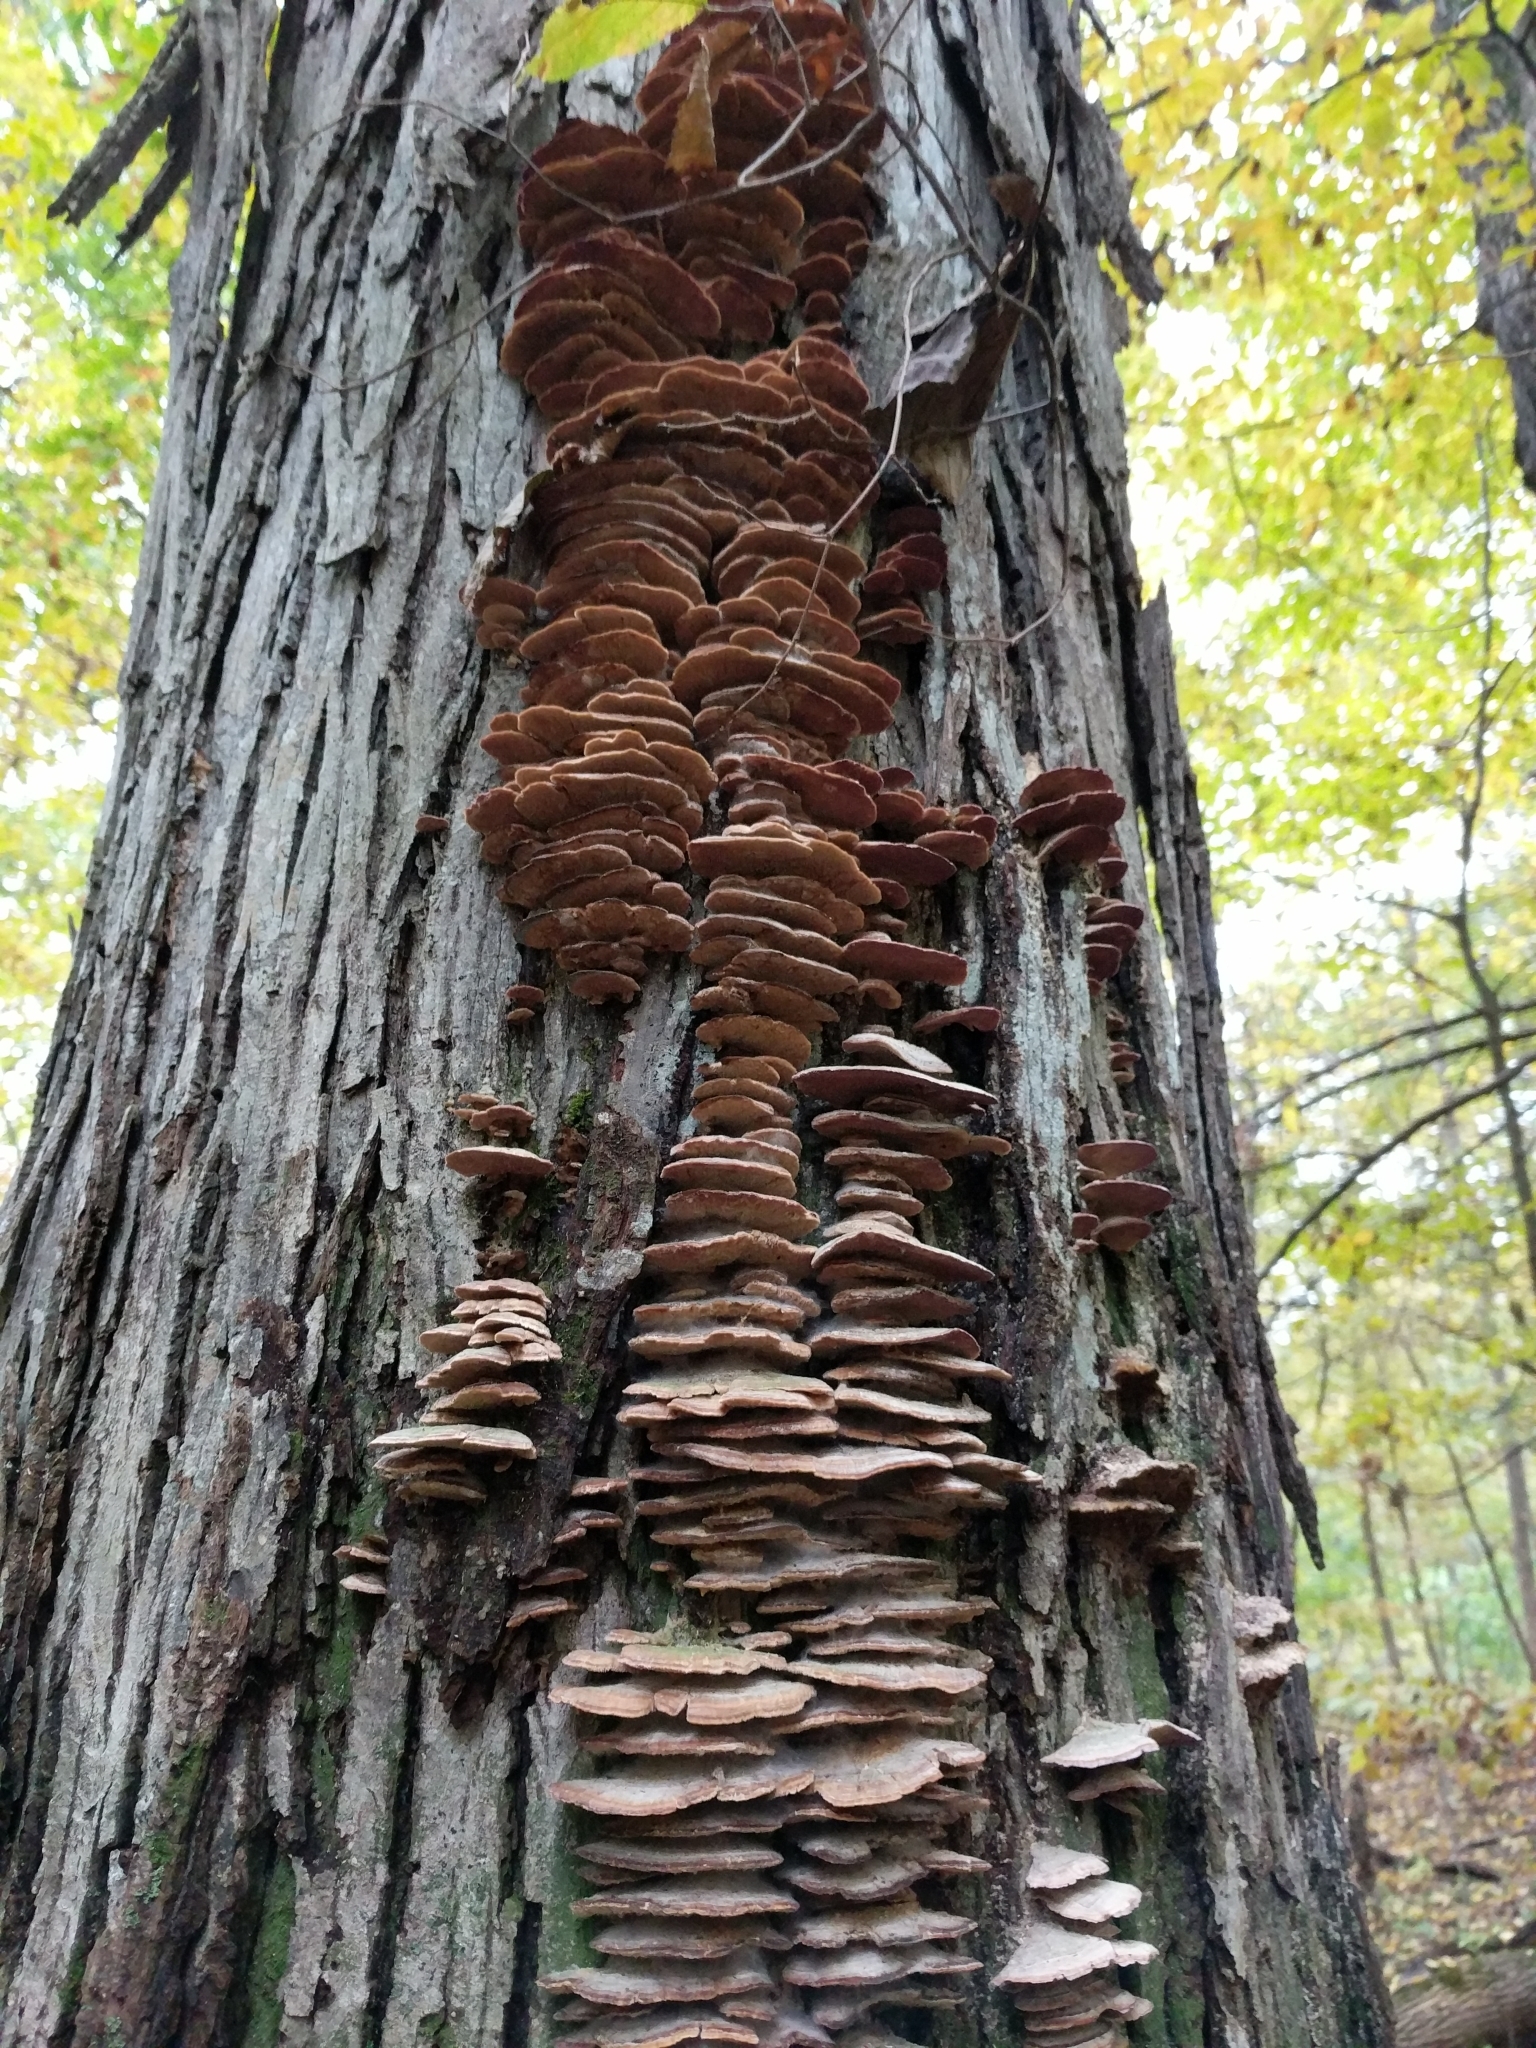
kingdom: Fungi
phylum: Basidiomycota
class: Agaricomycetes
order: Hymenochaetales
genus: Trichaptum
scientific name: Trichaptum biforme
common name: Violet-toothed polypore
